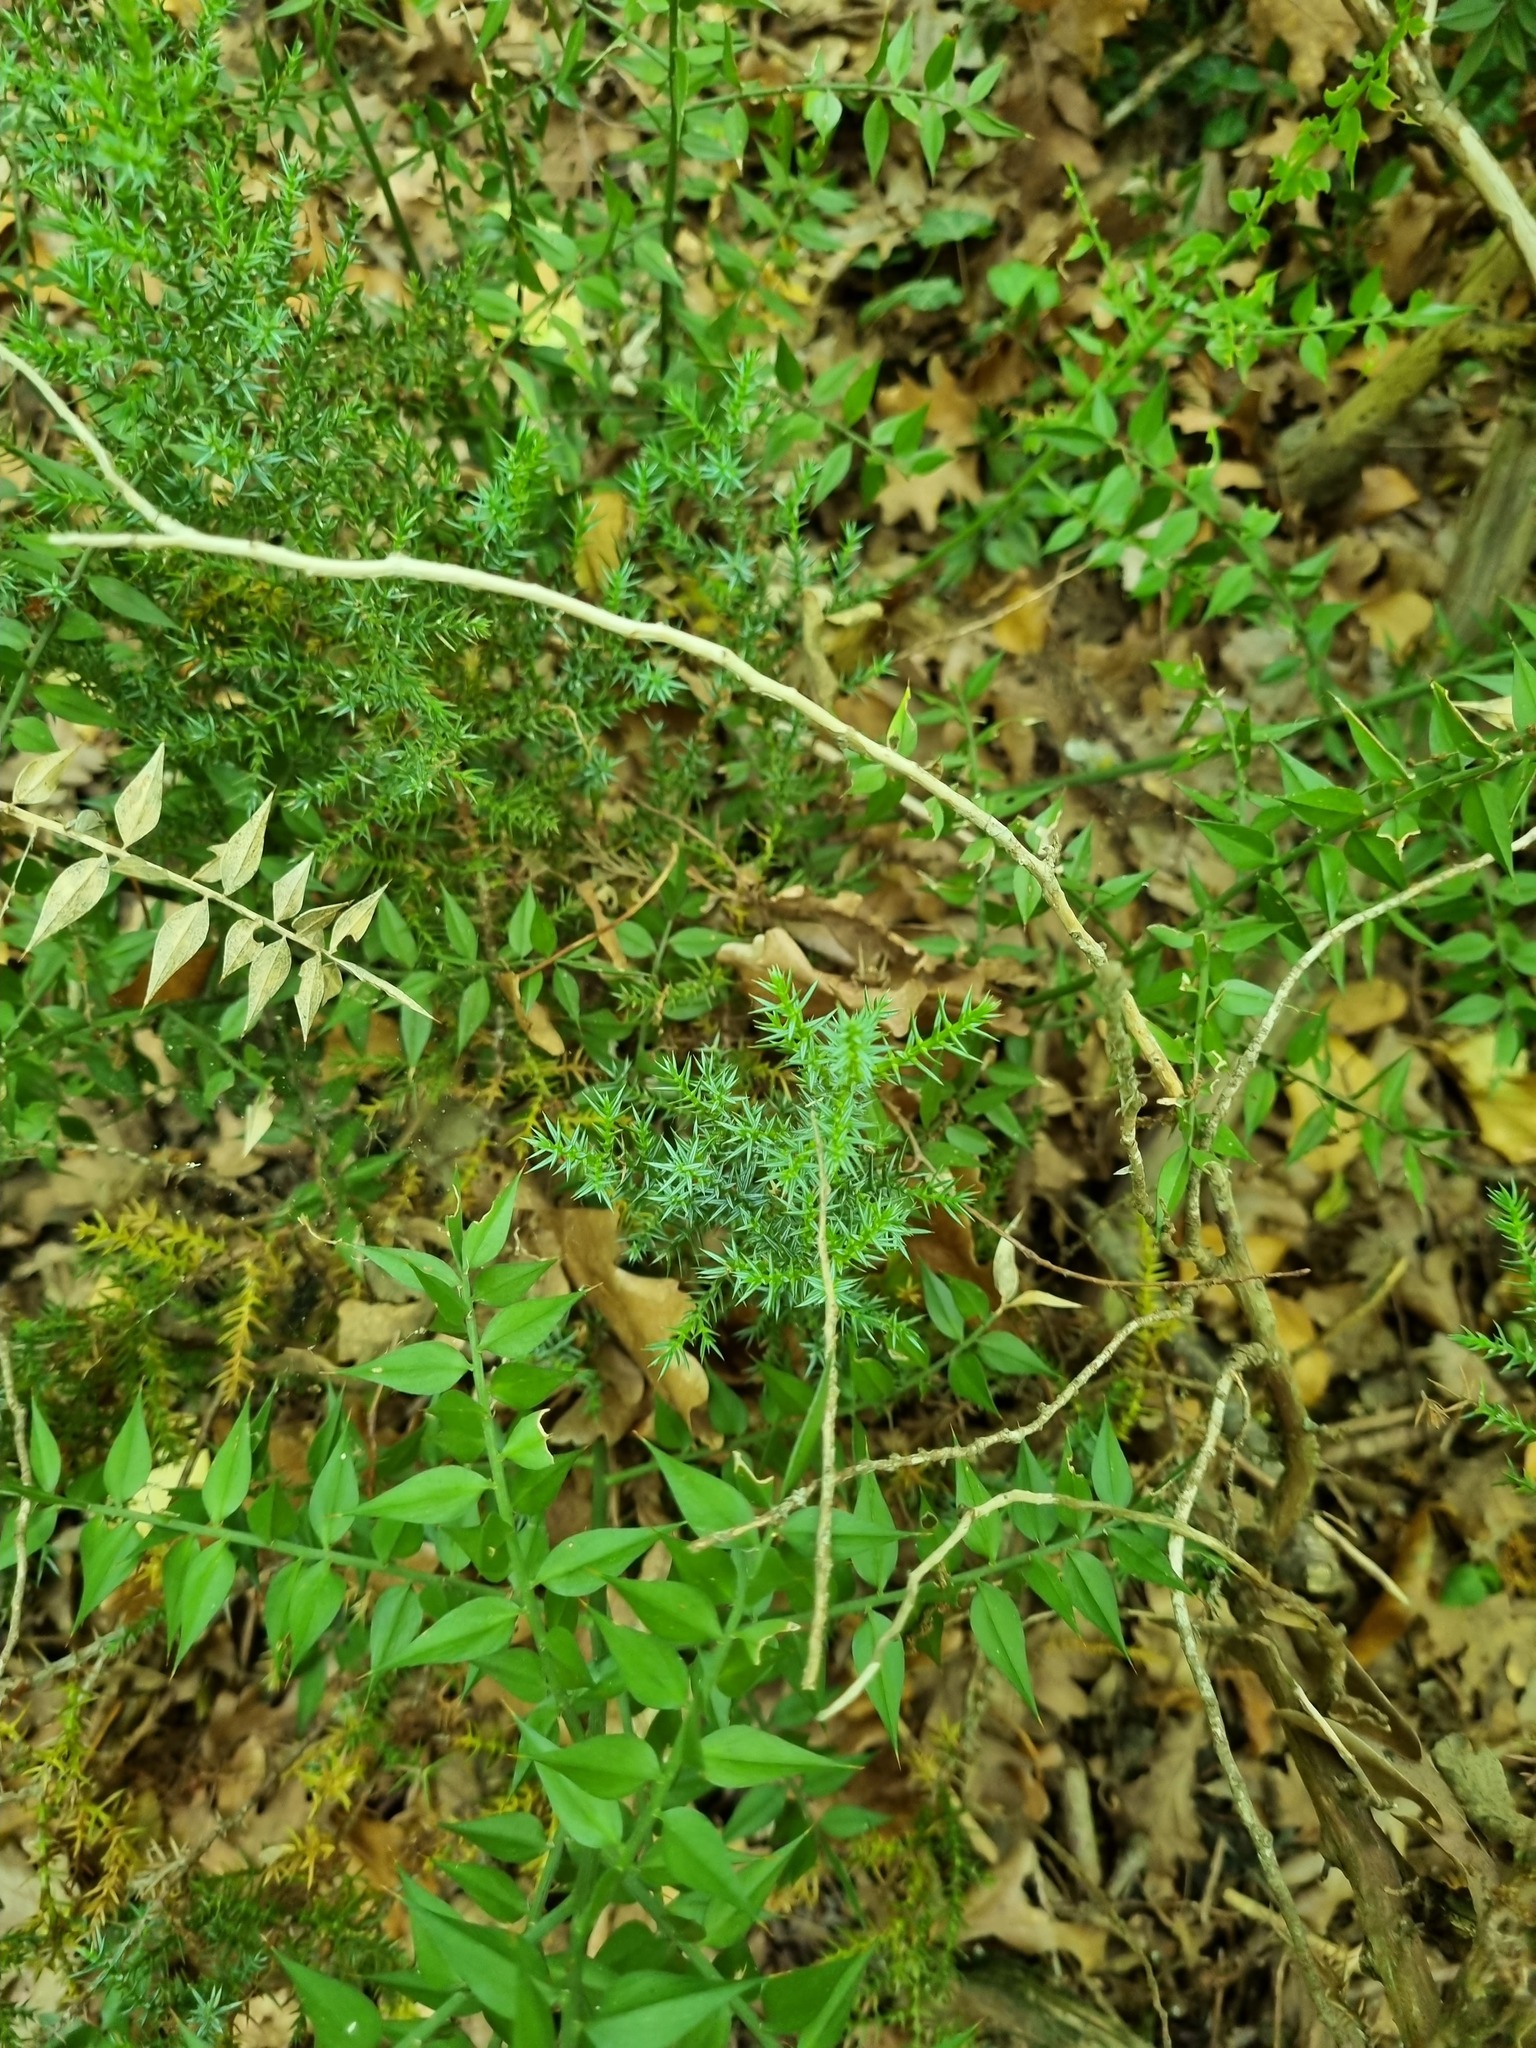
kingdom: Plantae
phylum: Tracheophyta
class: Liliopsida
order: Asparagales
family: Asparagaceae
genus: Ruscus
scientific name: Ruscus aculeatus
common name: Butcher's-broom
